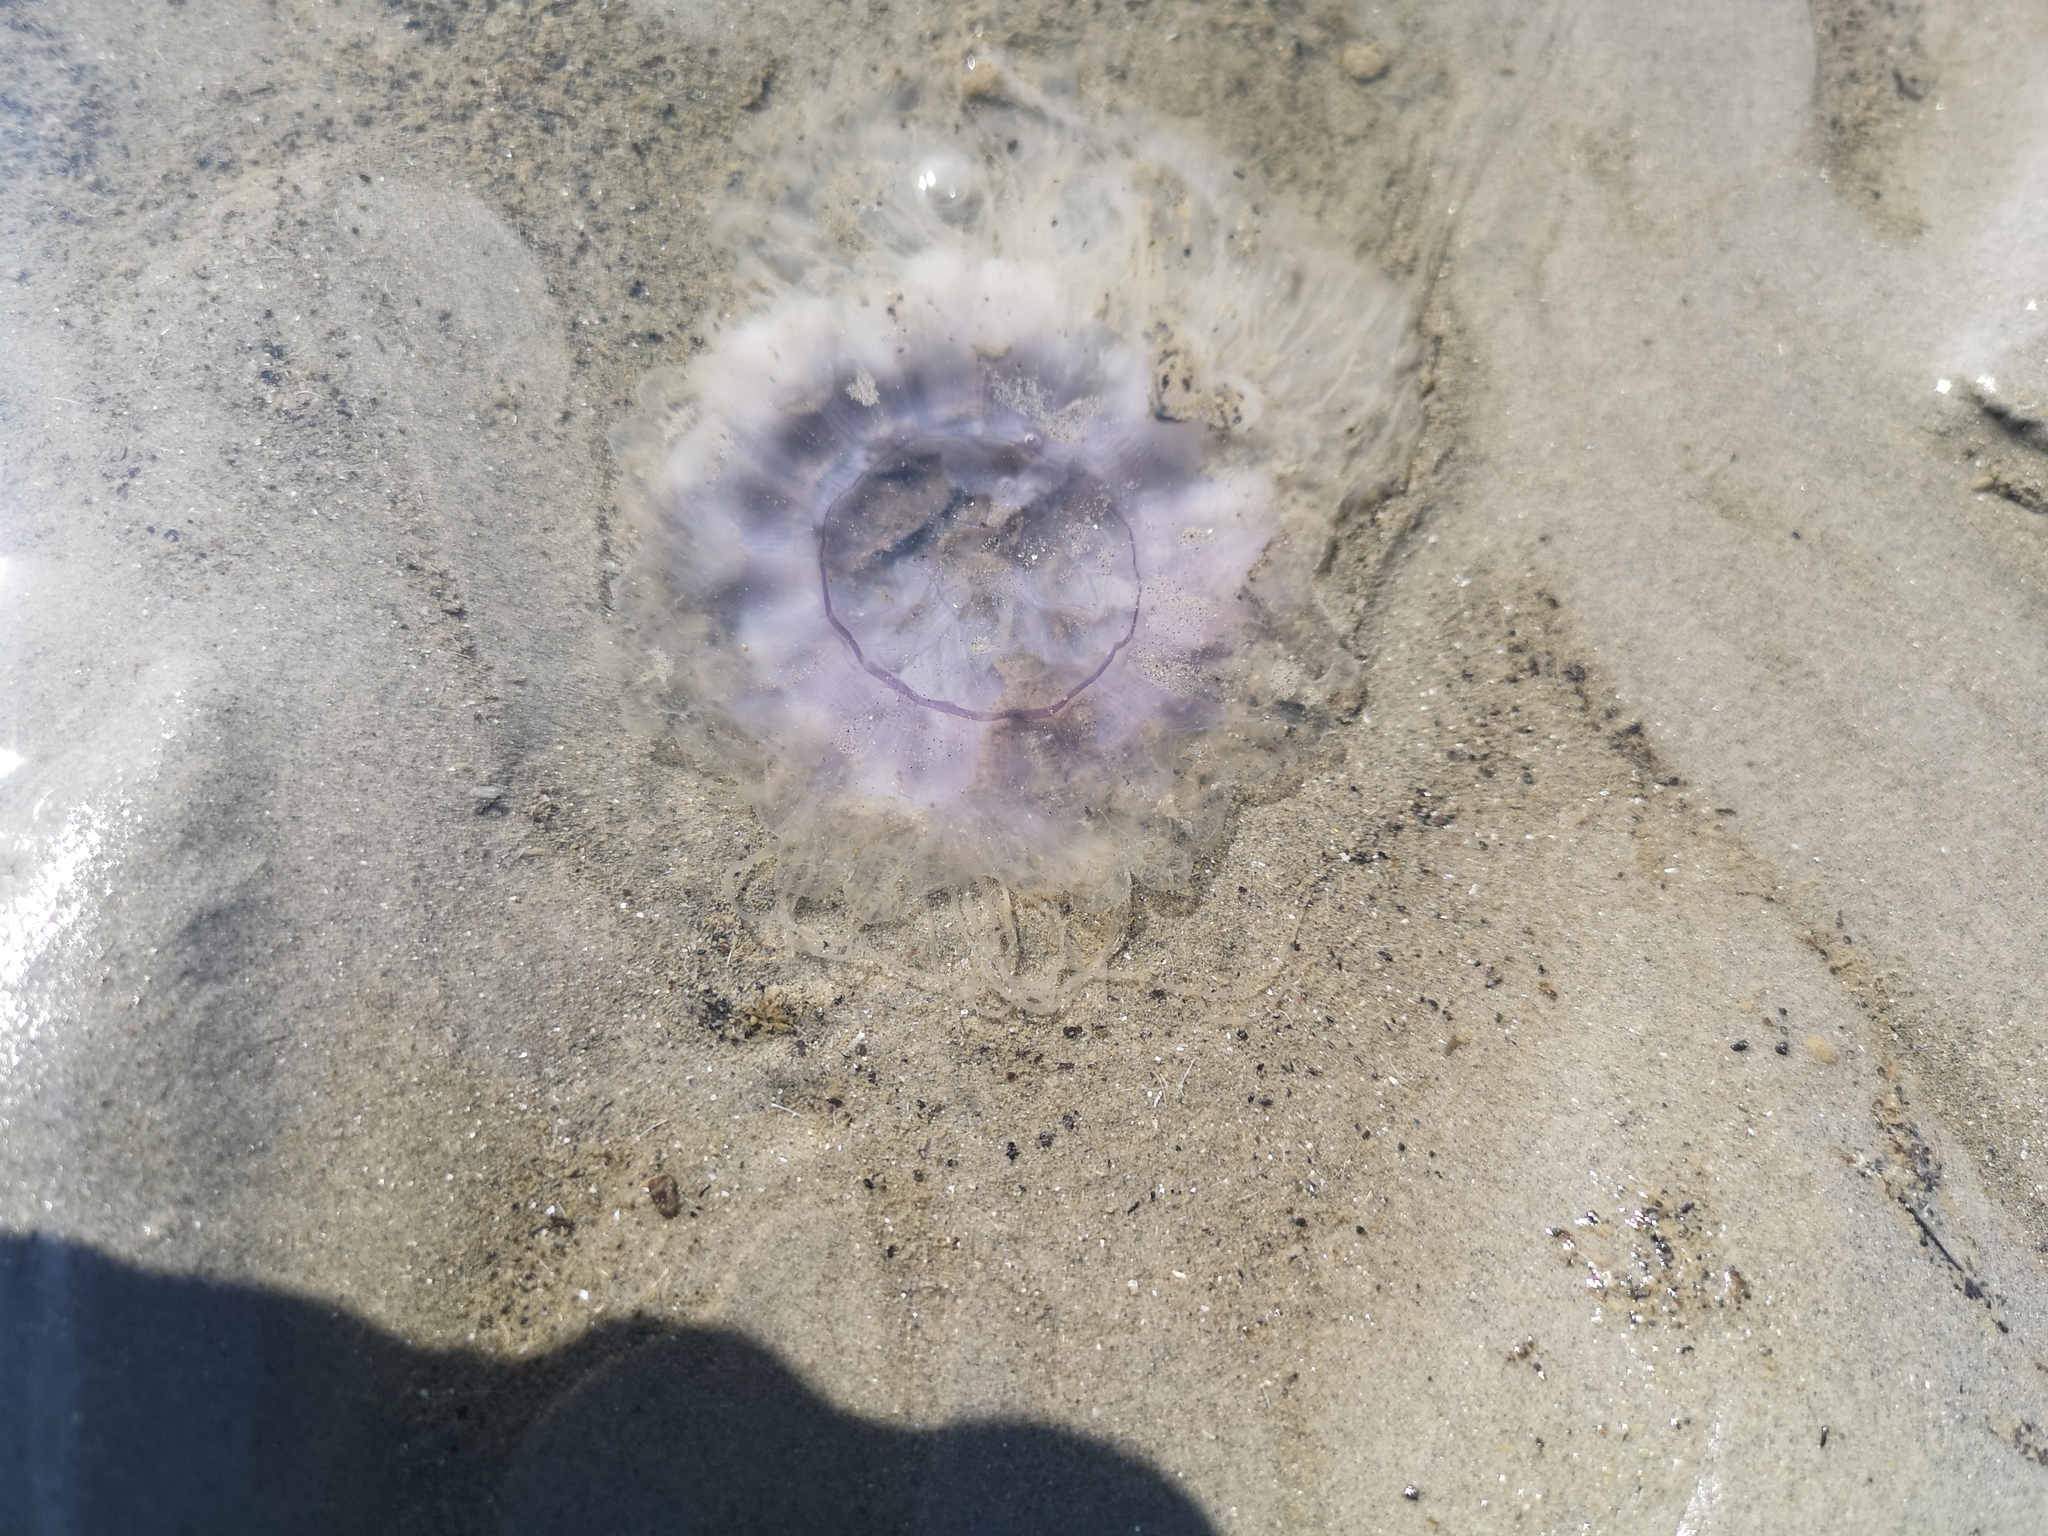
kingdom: Animalia
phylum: Cnidaria
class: Scyphozoa
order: Semaeostomeae
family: Cyaneidae
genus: Cyanea
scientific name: Cyanea lamarckii
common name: Blue jellyfish
